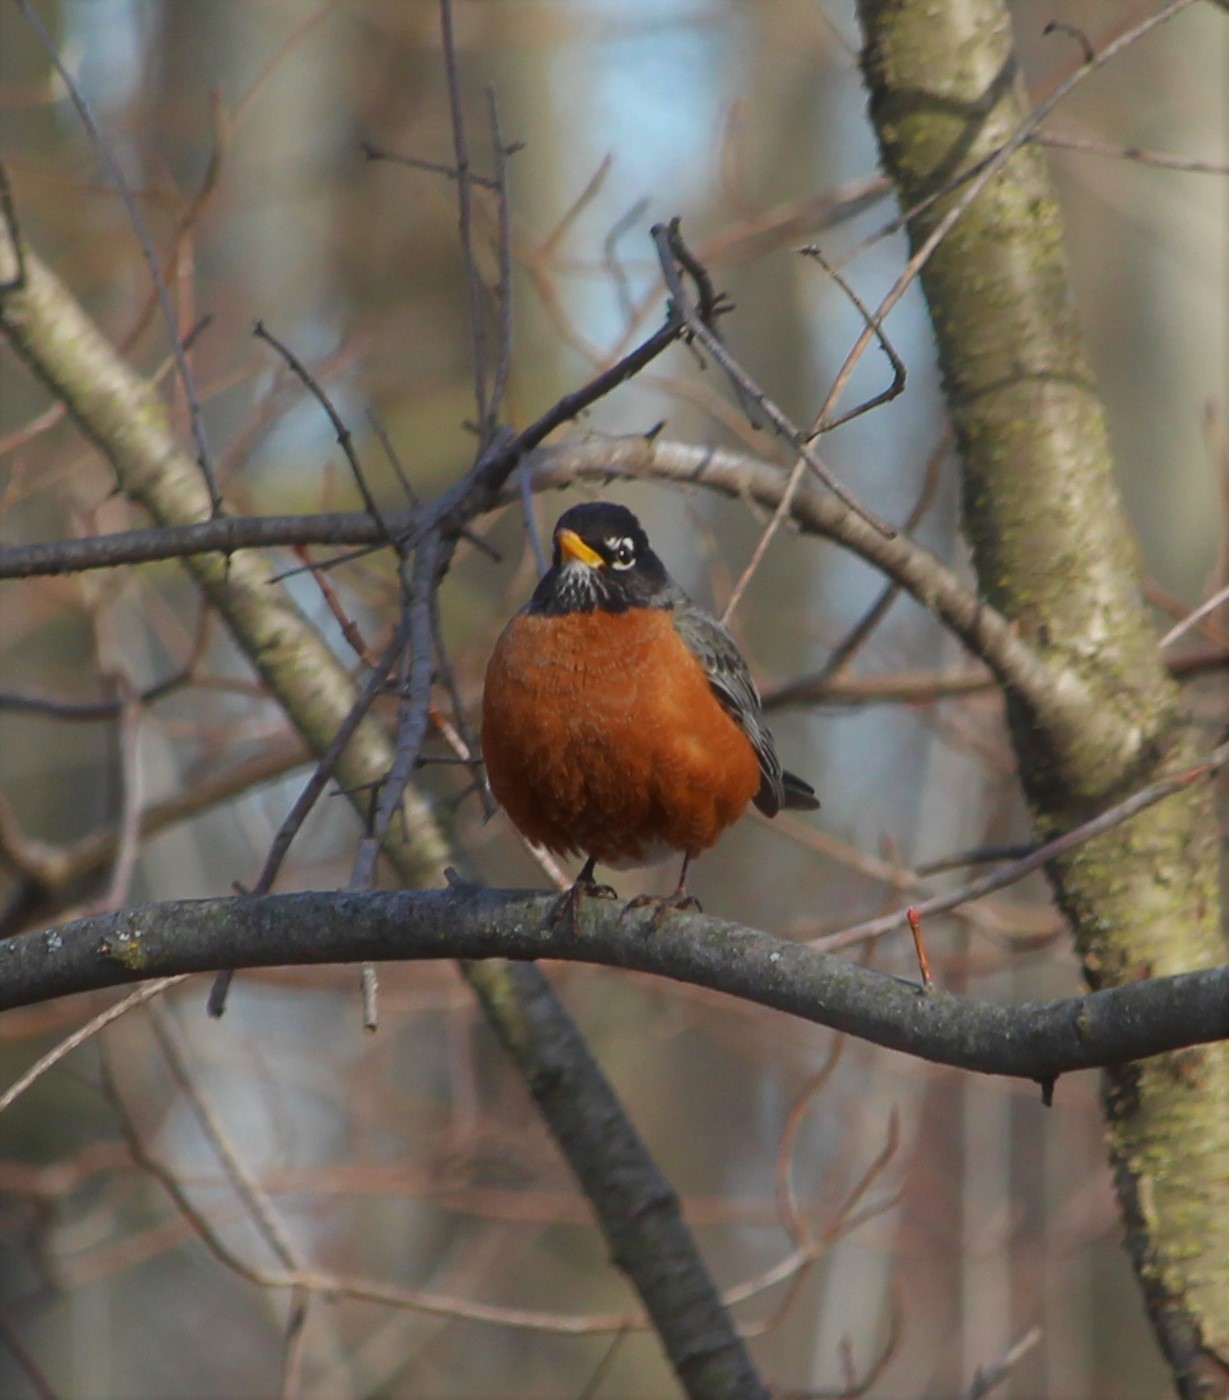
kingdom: Animalia
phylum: Chordata
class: Aves
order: Passeriformes
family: Turdidae
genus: Turdus
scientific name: Turdus migratorius
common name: American robin
